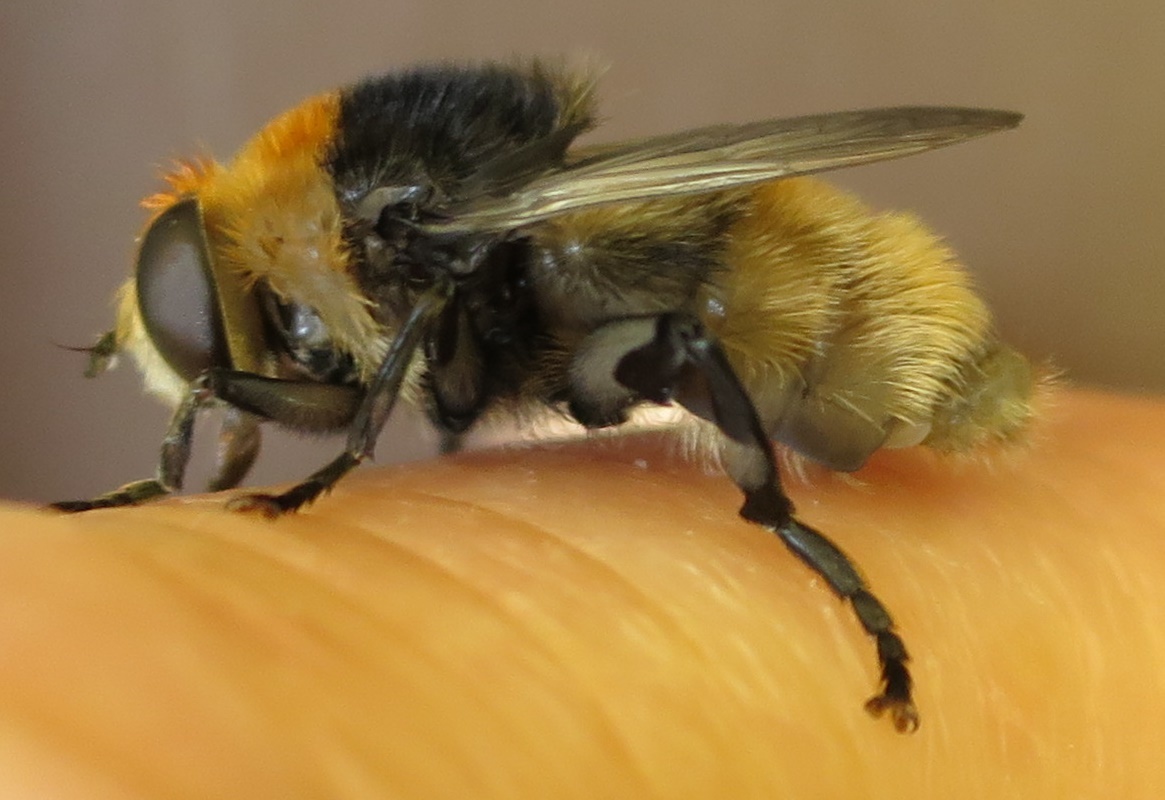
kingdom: Animalia
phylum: Arthropoda
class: Insecta
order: Diptera
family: Syrphidae
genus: Merodon
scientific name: Merodon equestris
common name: Greater bulb-fly
